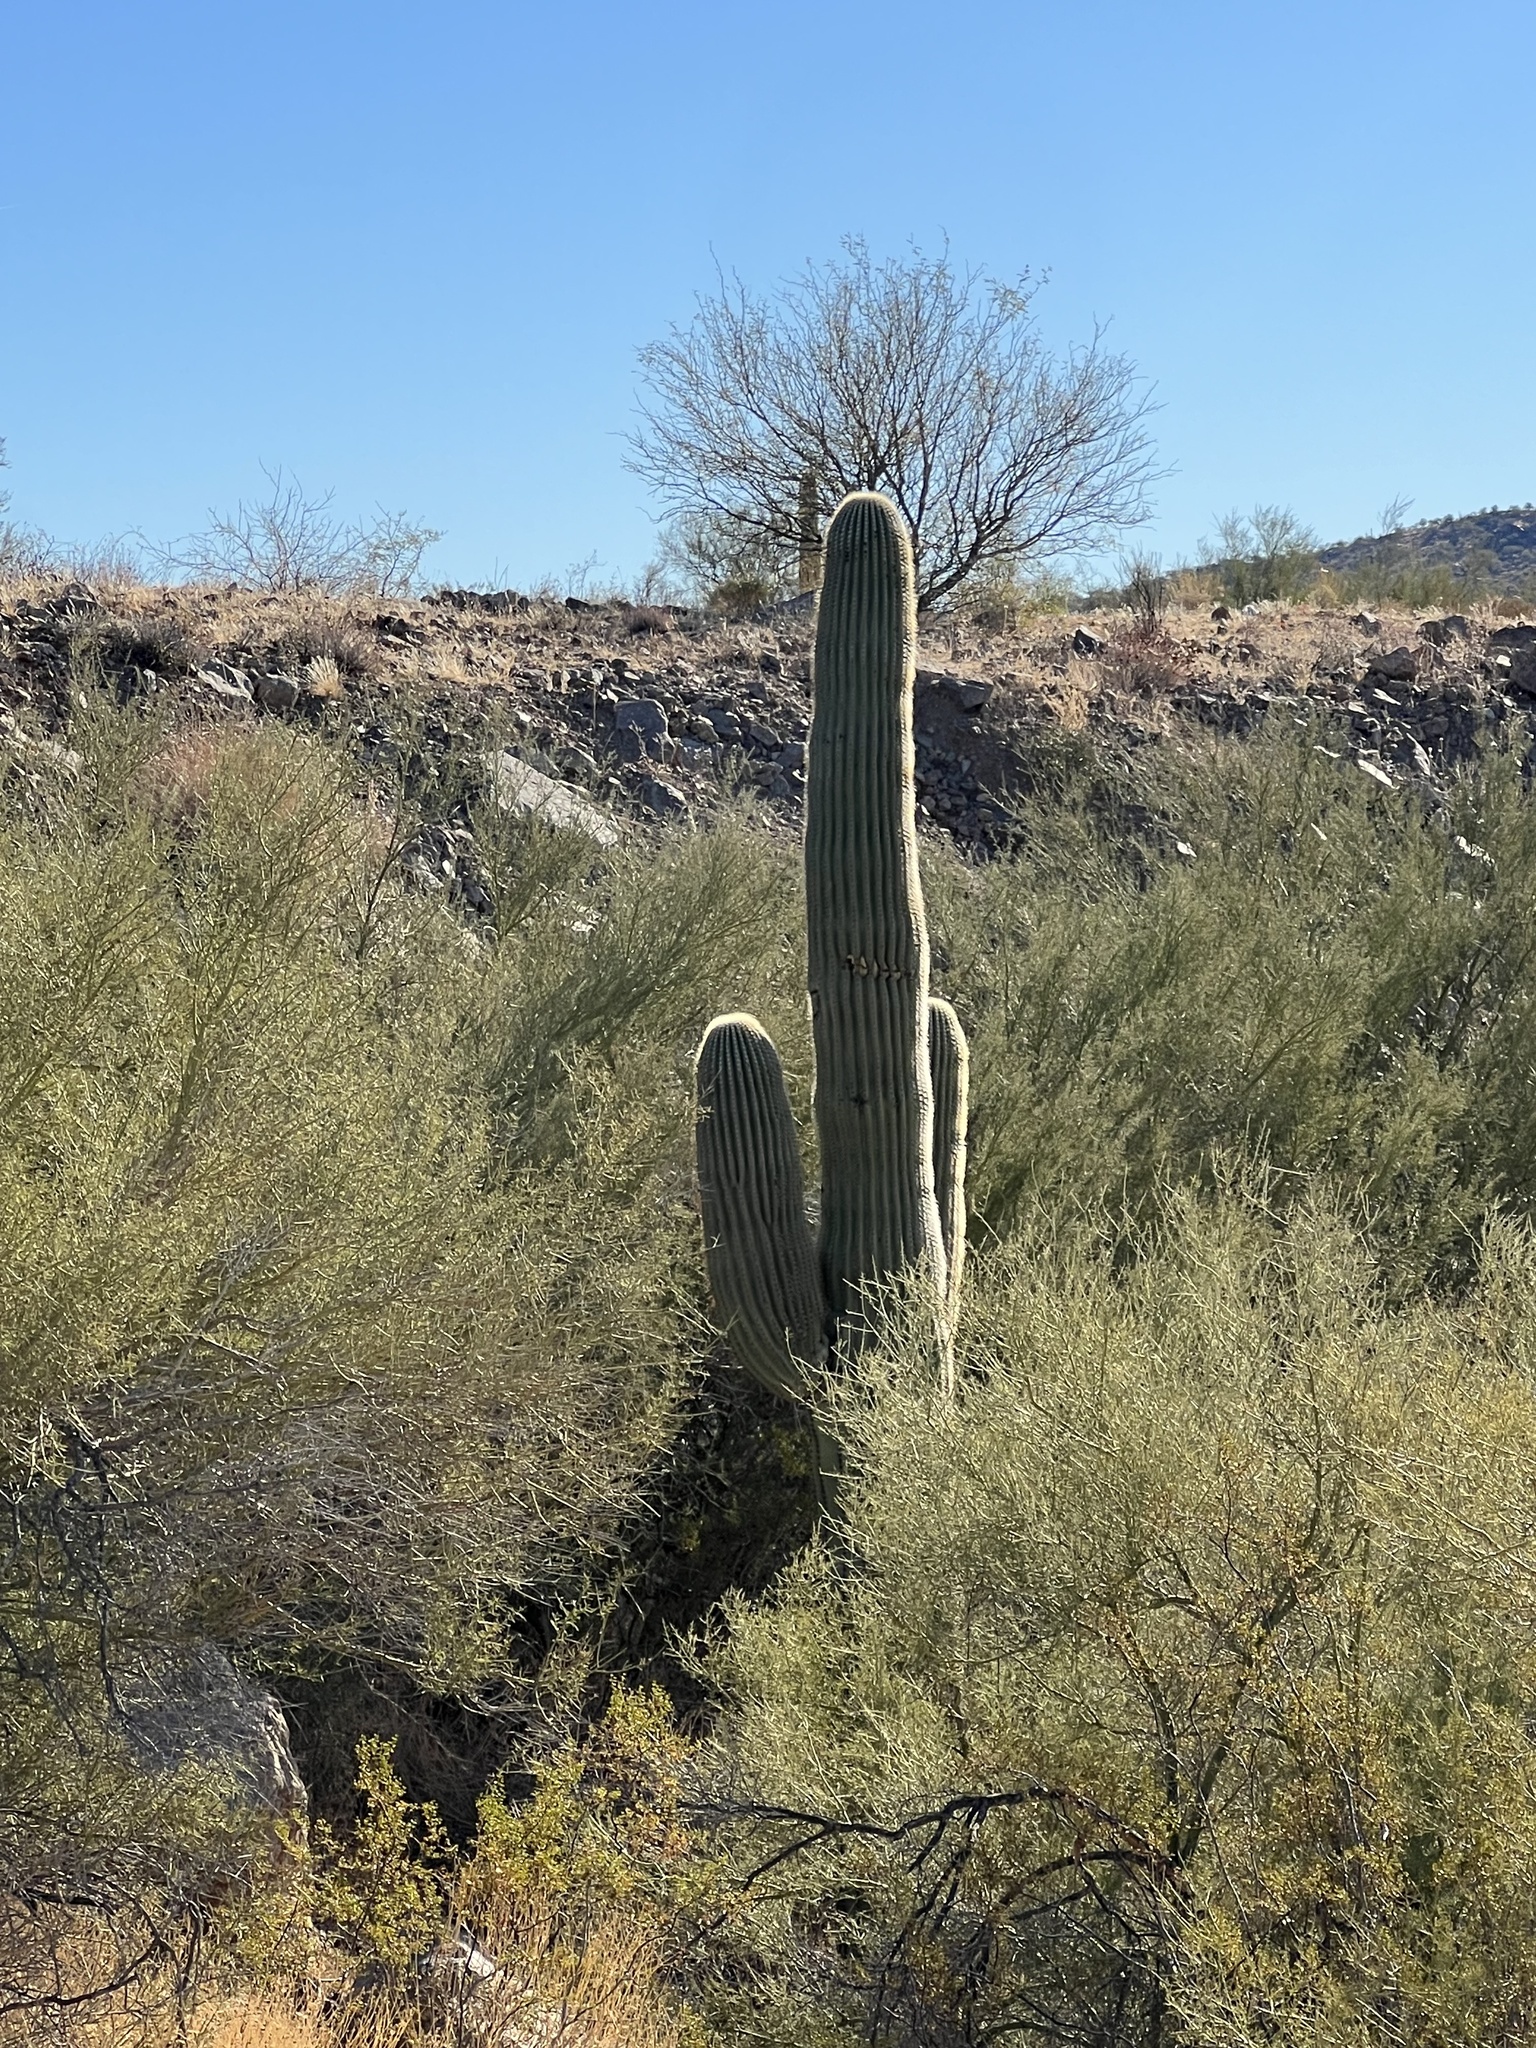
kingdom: Plantae
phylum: Tracheophyta
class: Magnoliopsida
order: Caryophyllales
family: Cactaceae
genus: Carnegiea
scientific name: Carnegiea gigantea
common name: Saguaro
